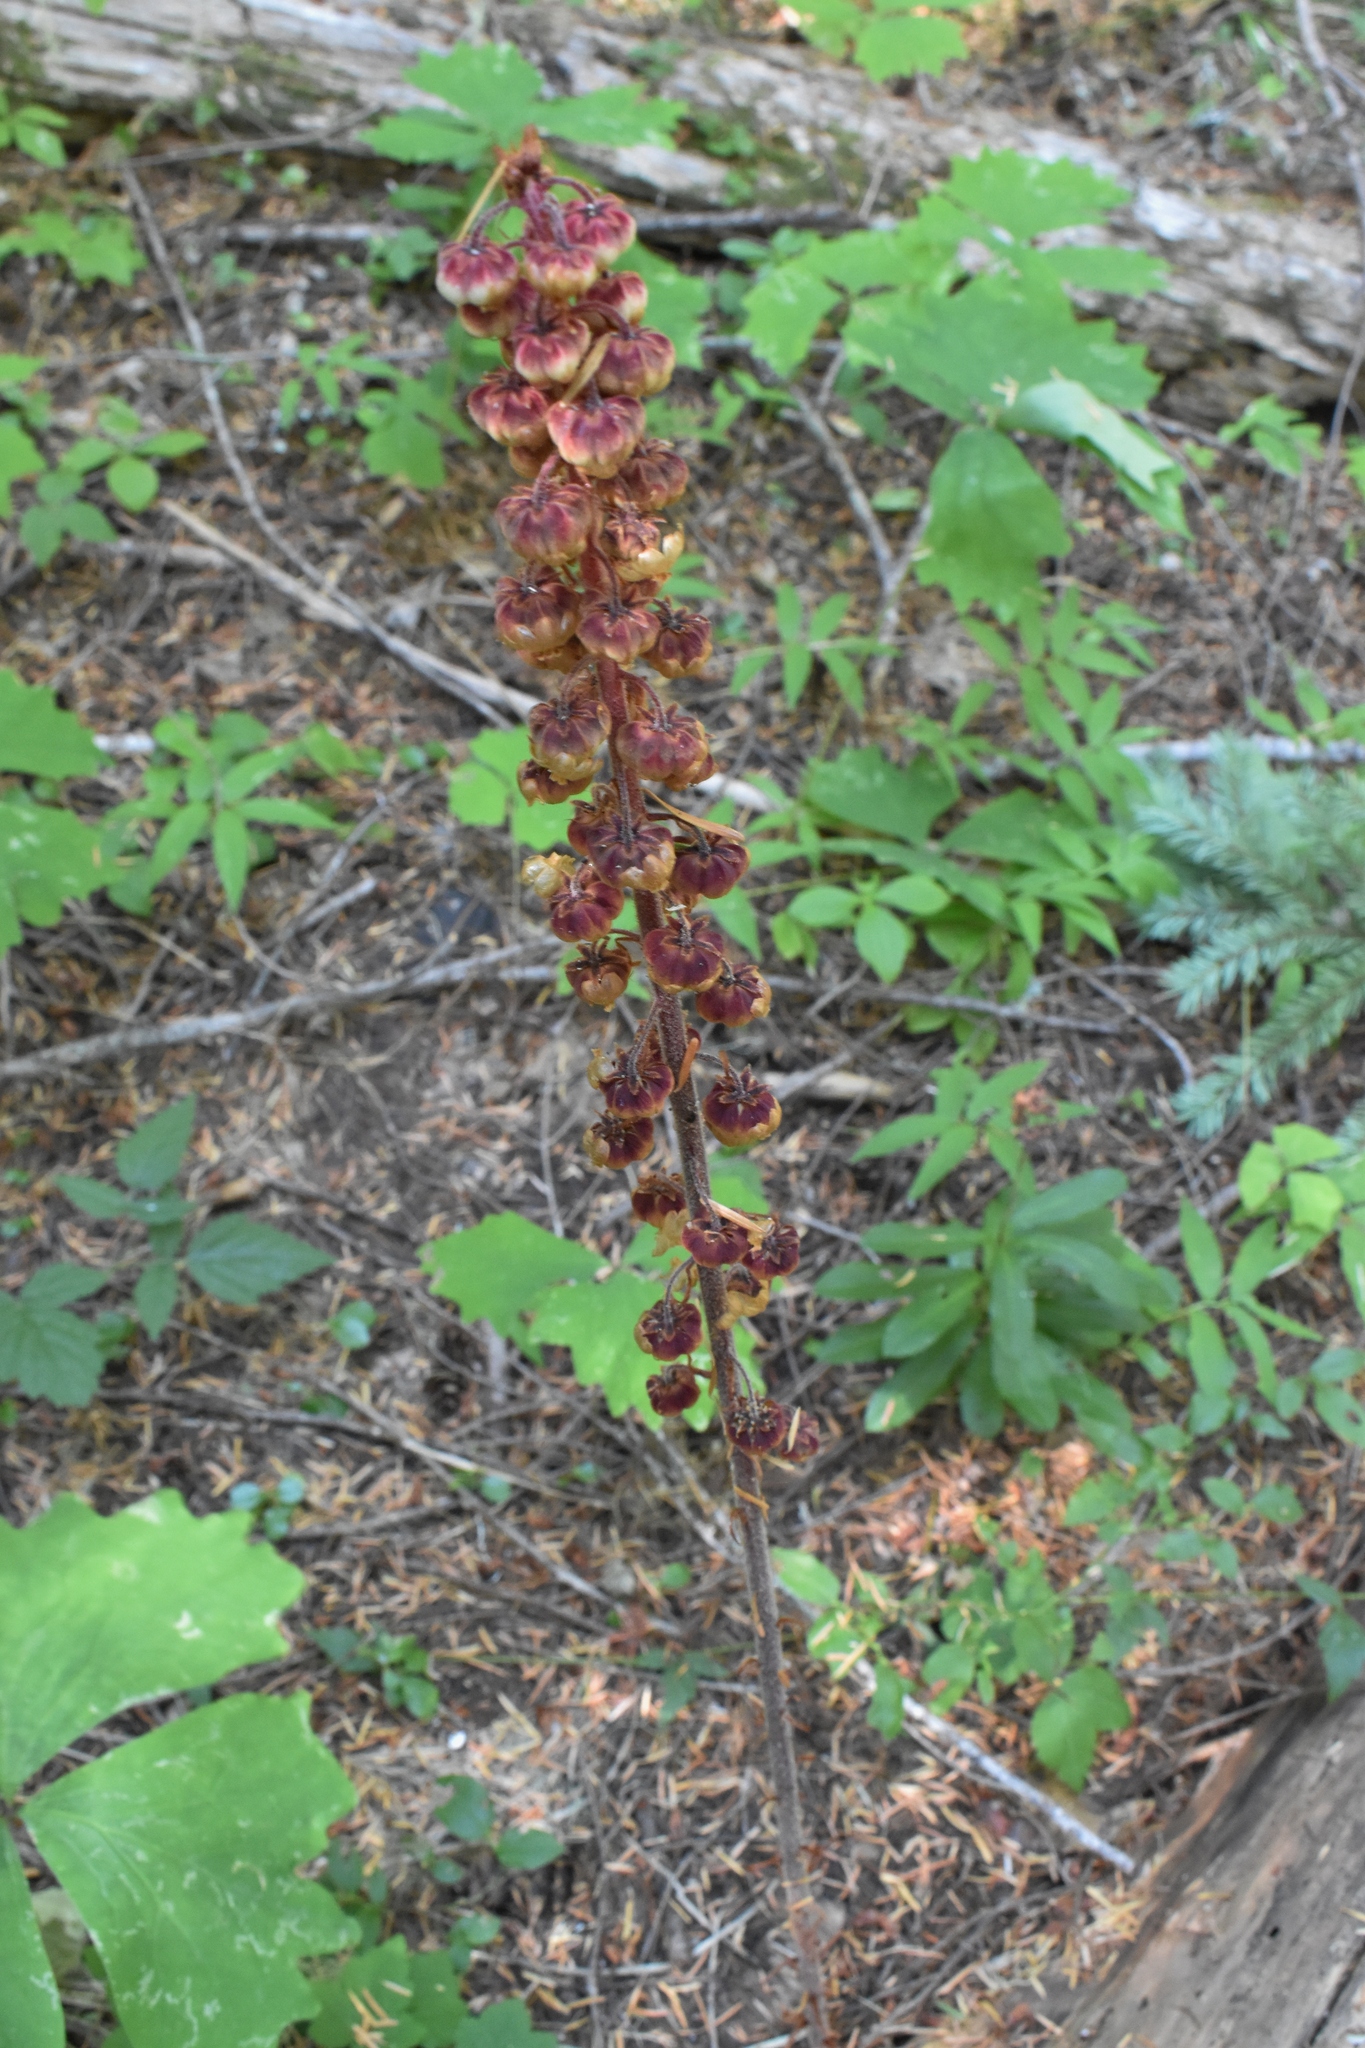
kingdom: Plantae
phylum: Tracheophyta
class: Magnoliopsida
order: Ericales
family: Ericaceae
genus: Pterospora
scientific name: Pterospora andromedea
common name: Giant bird's-nest
